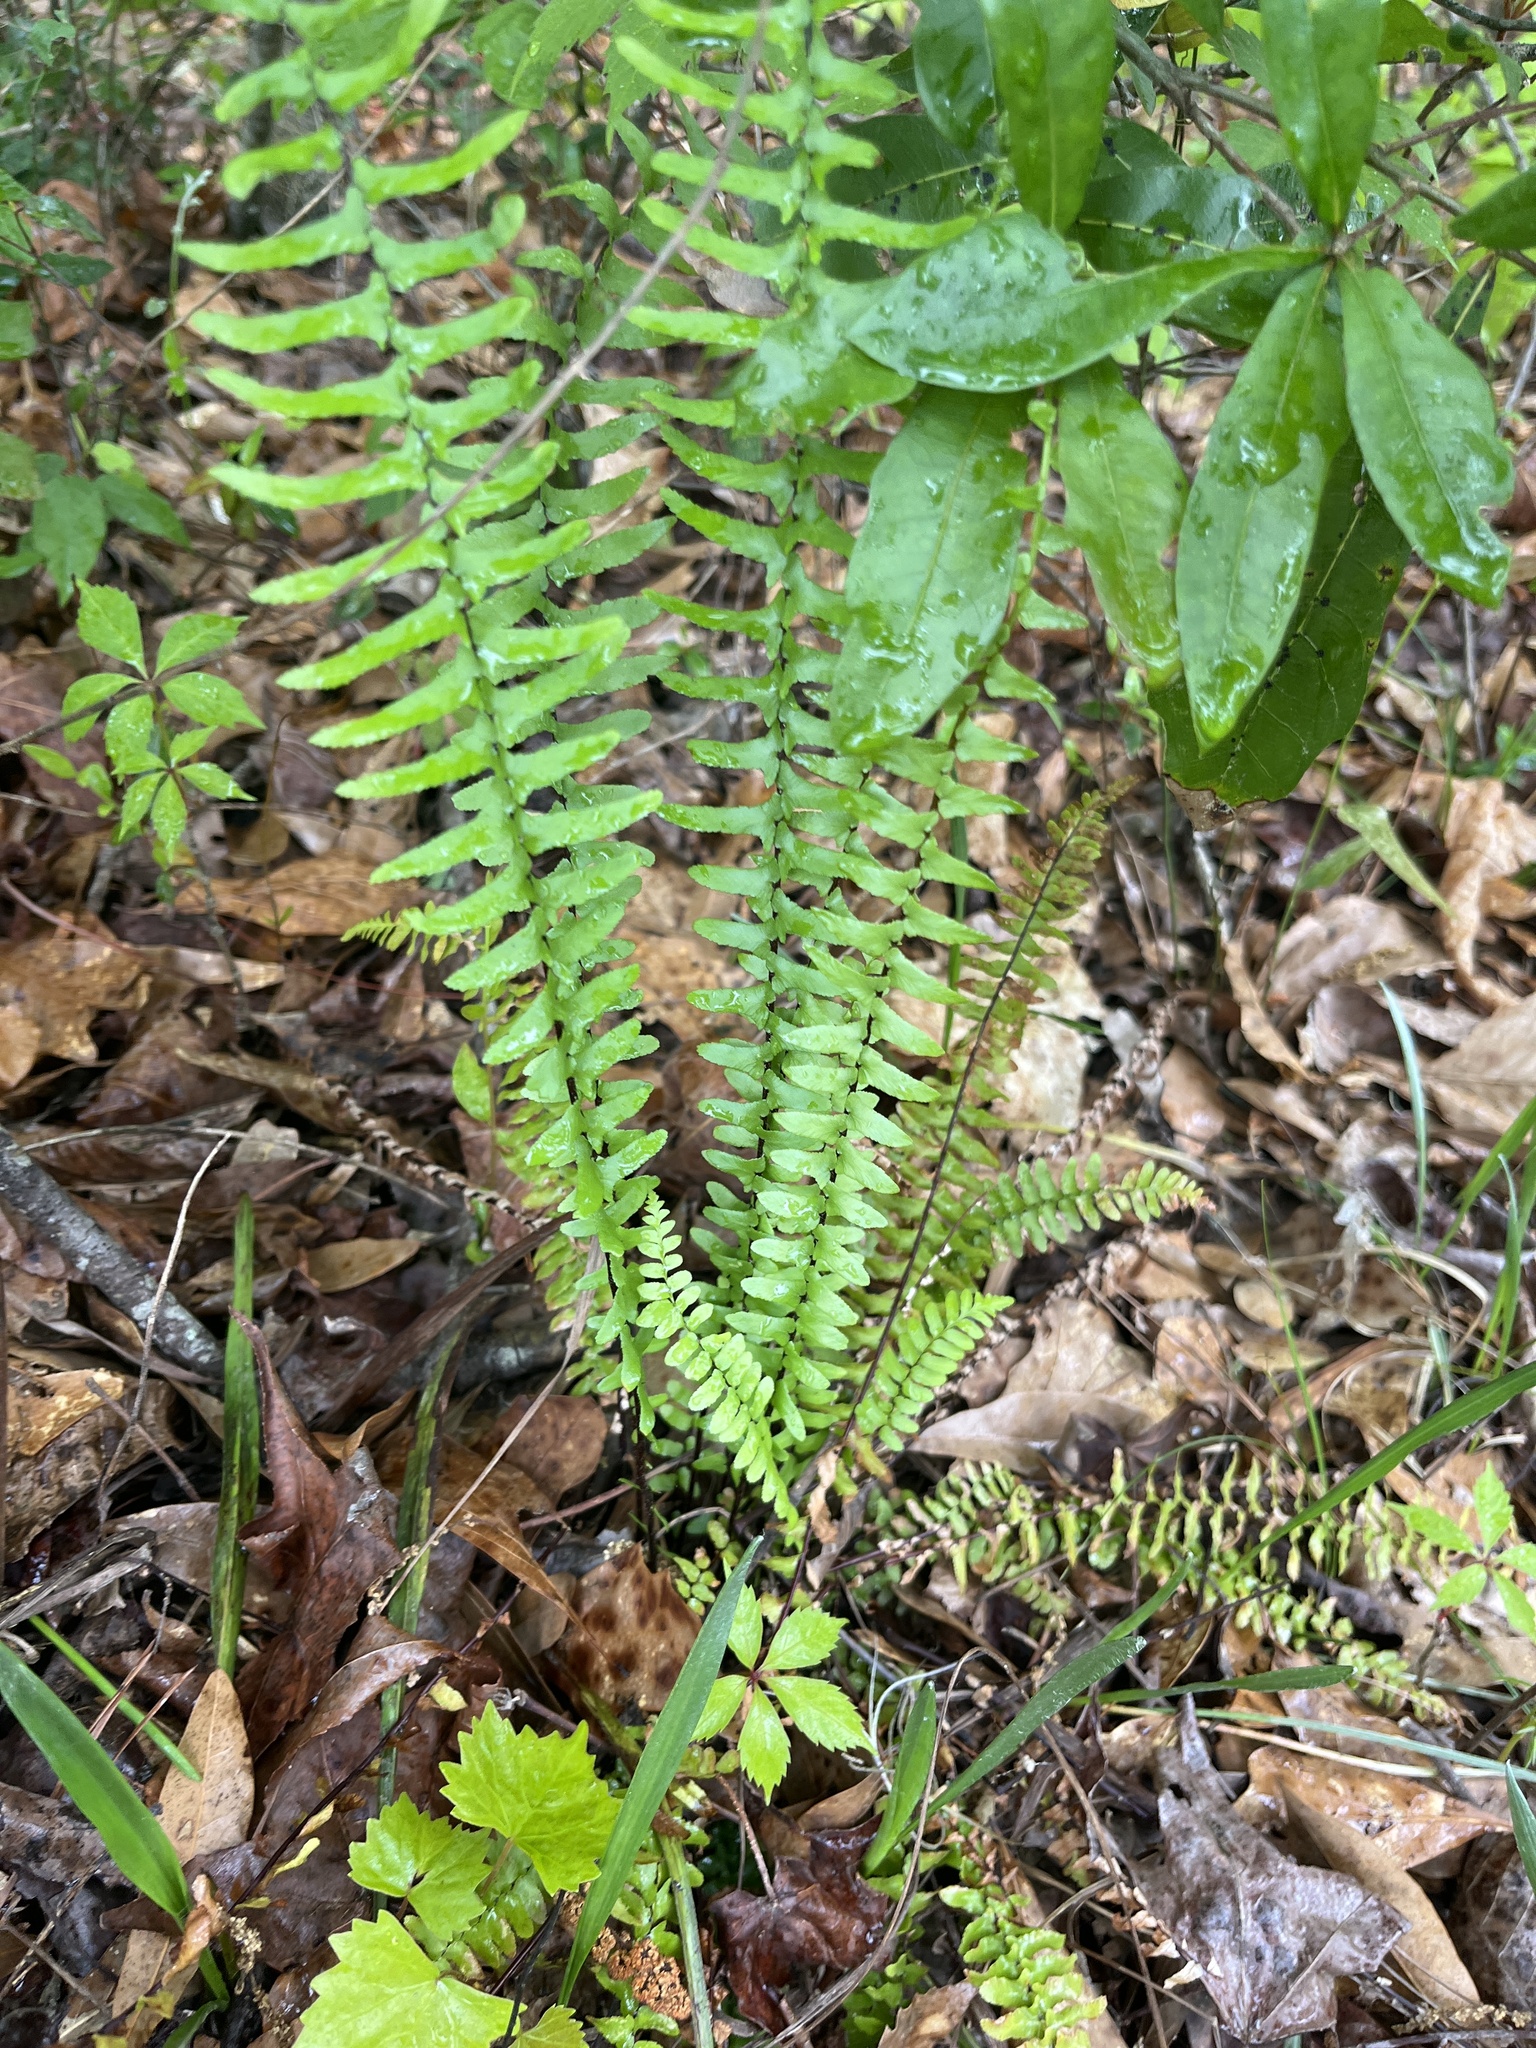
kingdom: Plantae
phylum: Tracheophyta
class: Polypodiopsida
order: Polypodiales
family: Aspleniaceae
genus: Asplenium
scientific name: Asplenium platyneuron
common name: Ebony spleenwort
